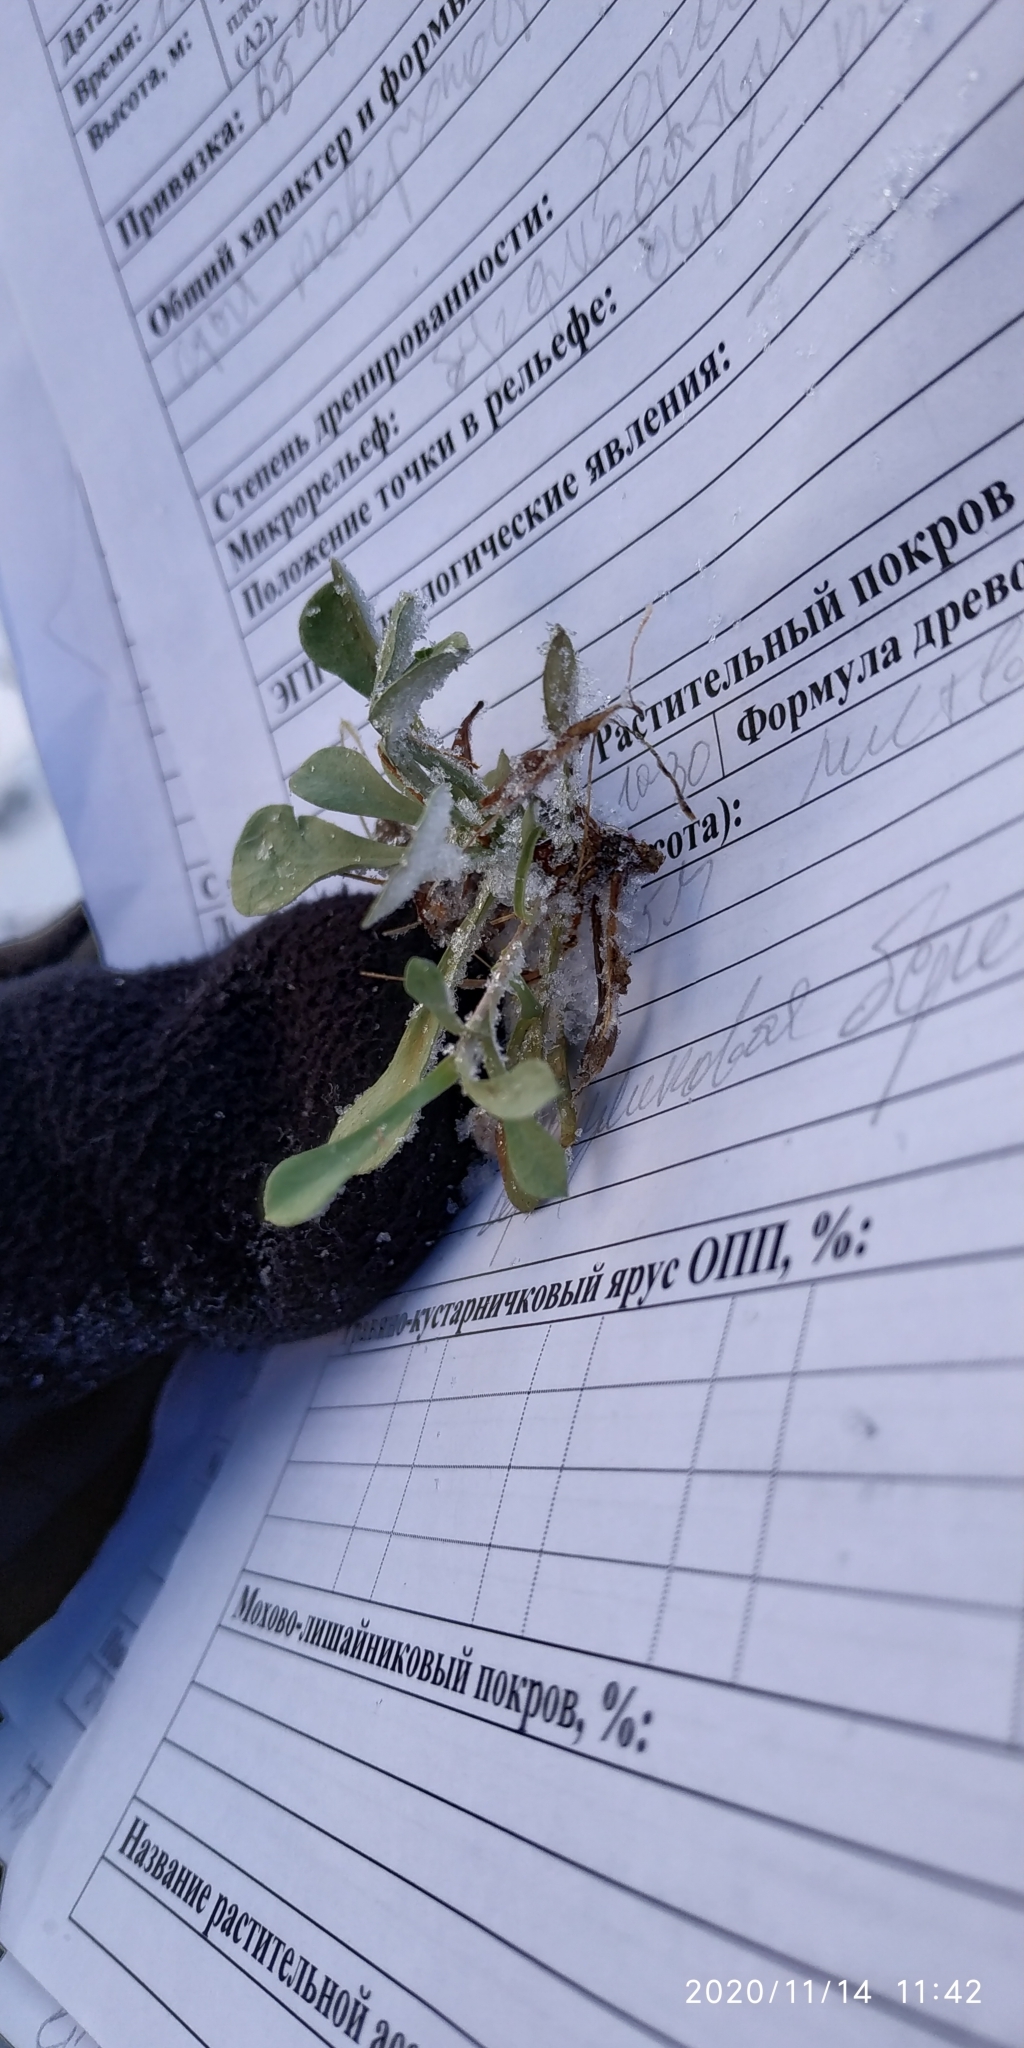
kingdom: Plantae
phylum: Tracheophyta
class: Magnoliopsida
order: Asterales
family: Asteraceae
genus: Antennaria
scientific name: Antennaria dioica
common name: Mountain everlasting
